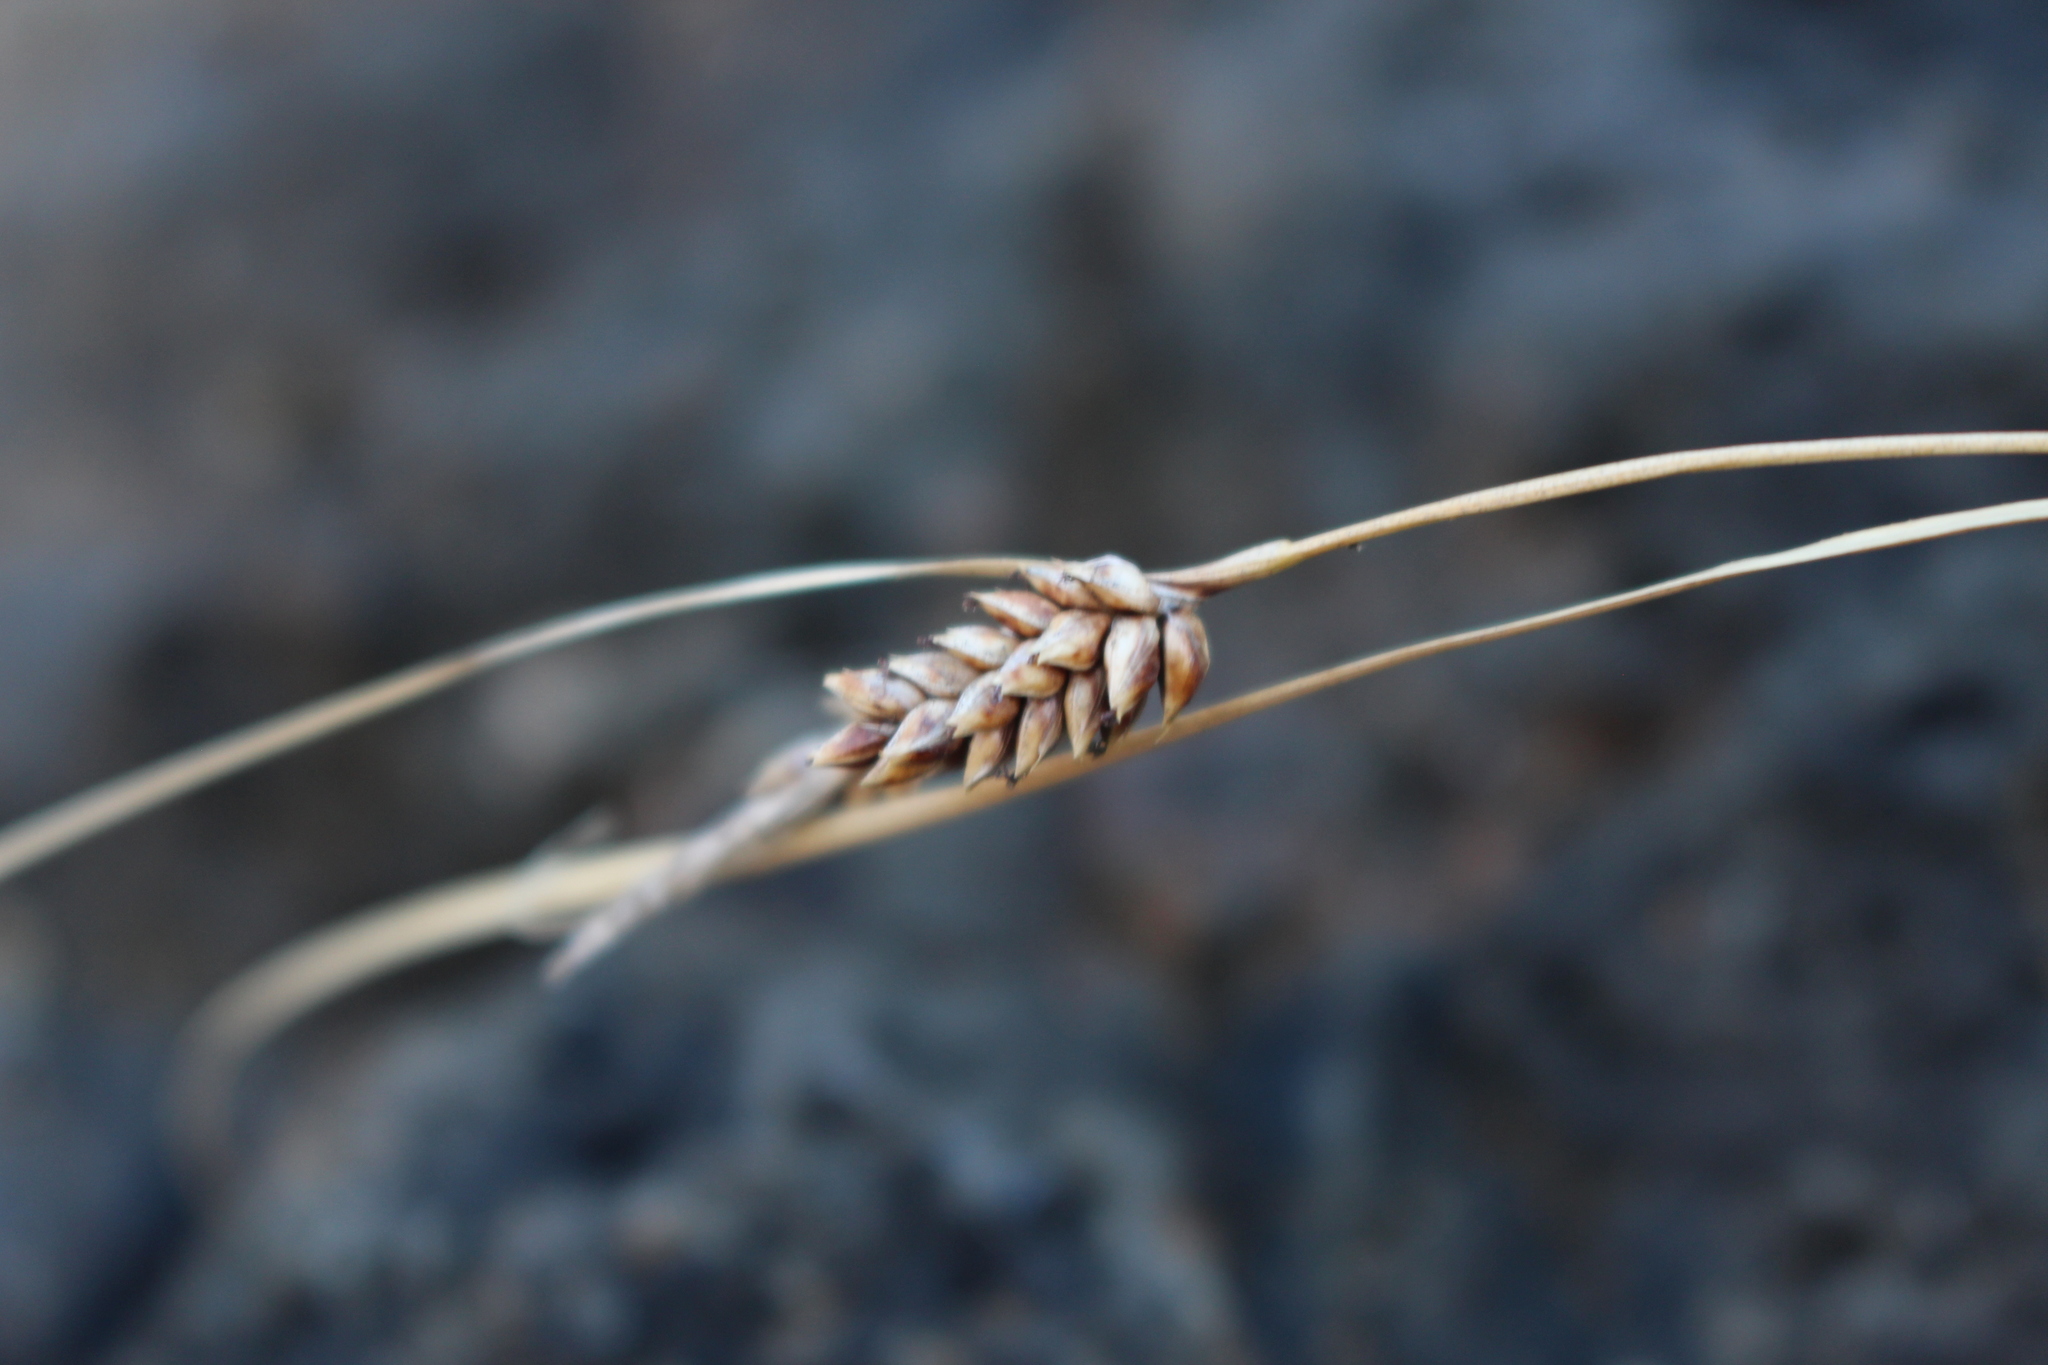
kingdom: Plantae
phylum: Tracheophyta
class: Liliopsida
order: Poales
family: Cyperaceae
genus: Carex
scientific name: Carex litorosa
